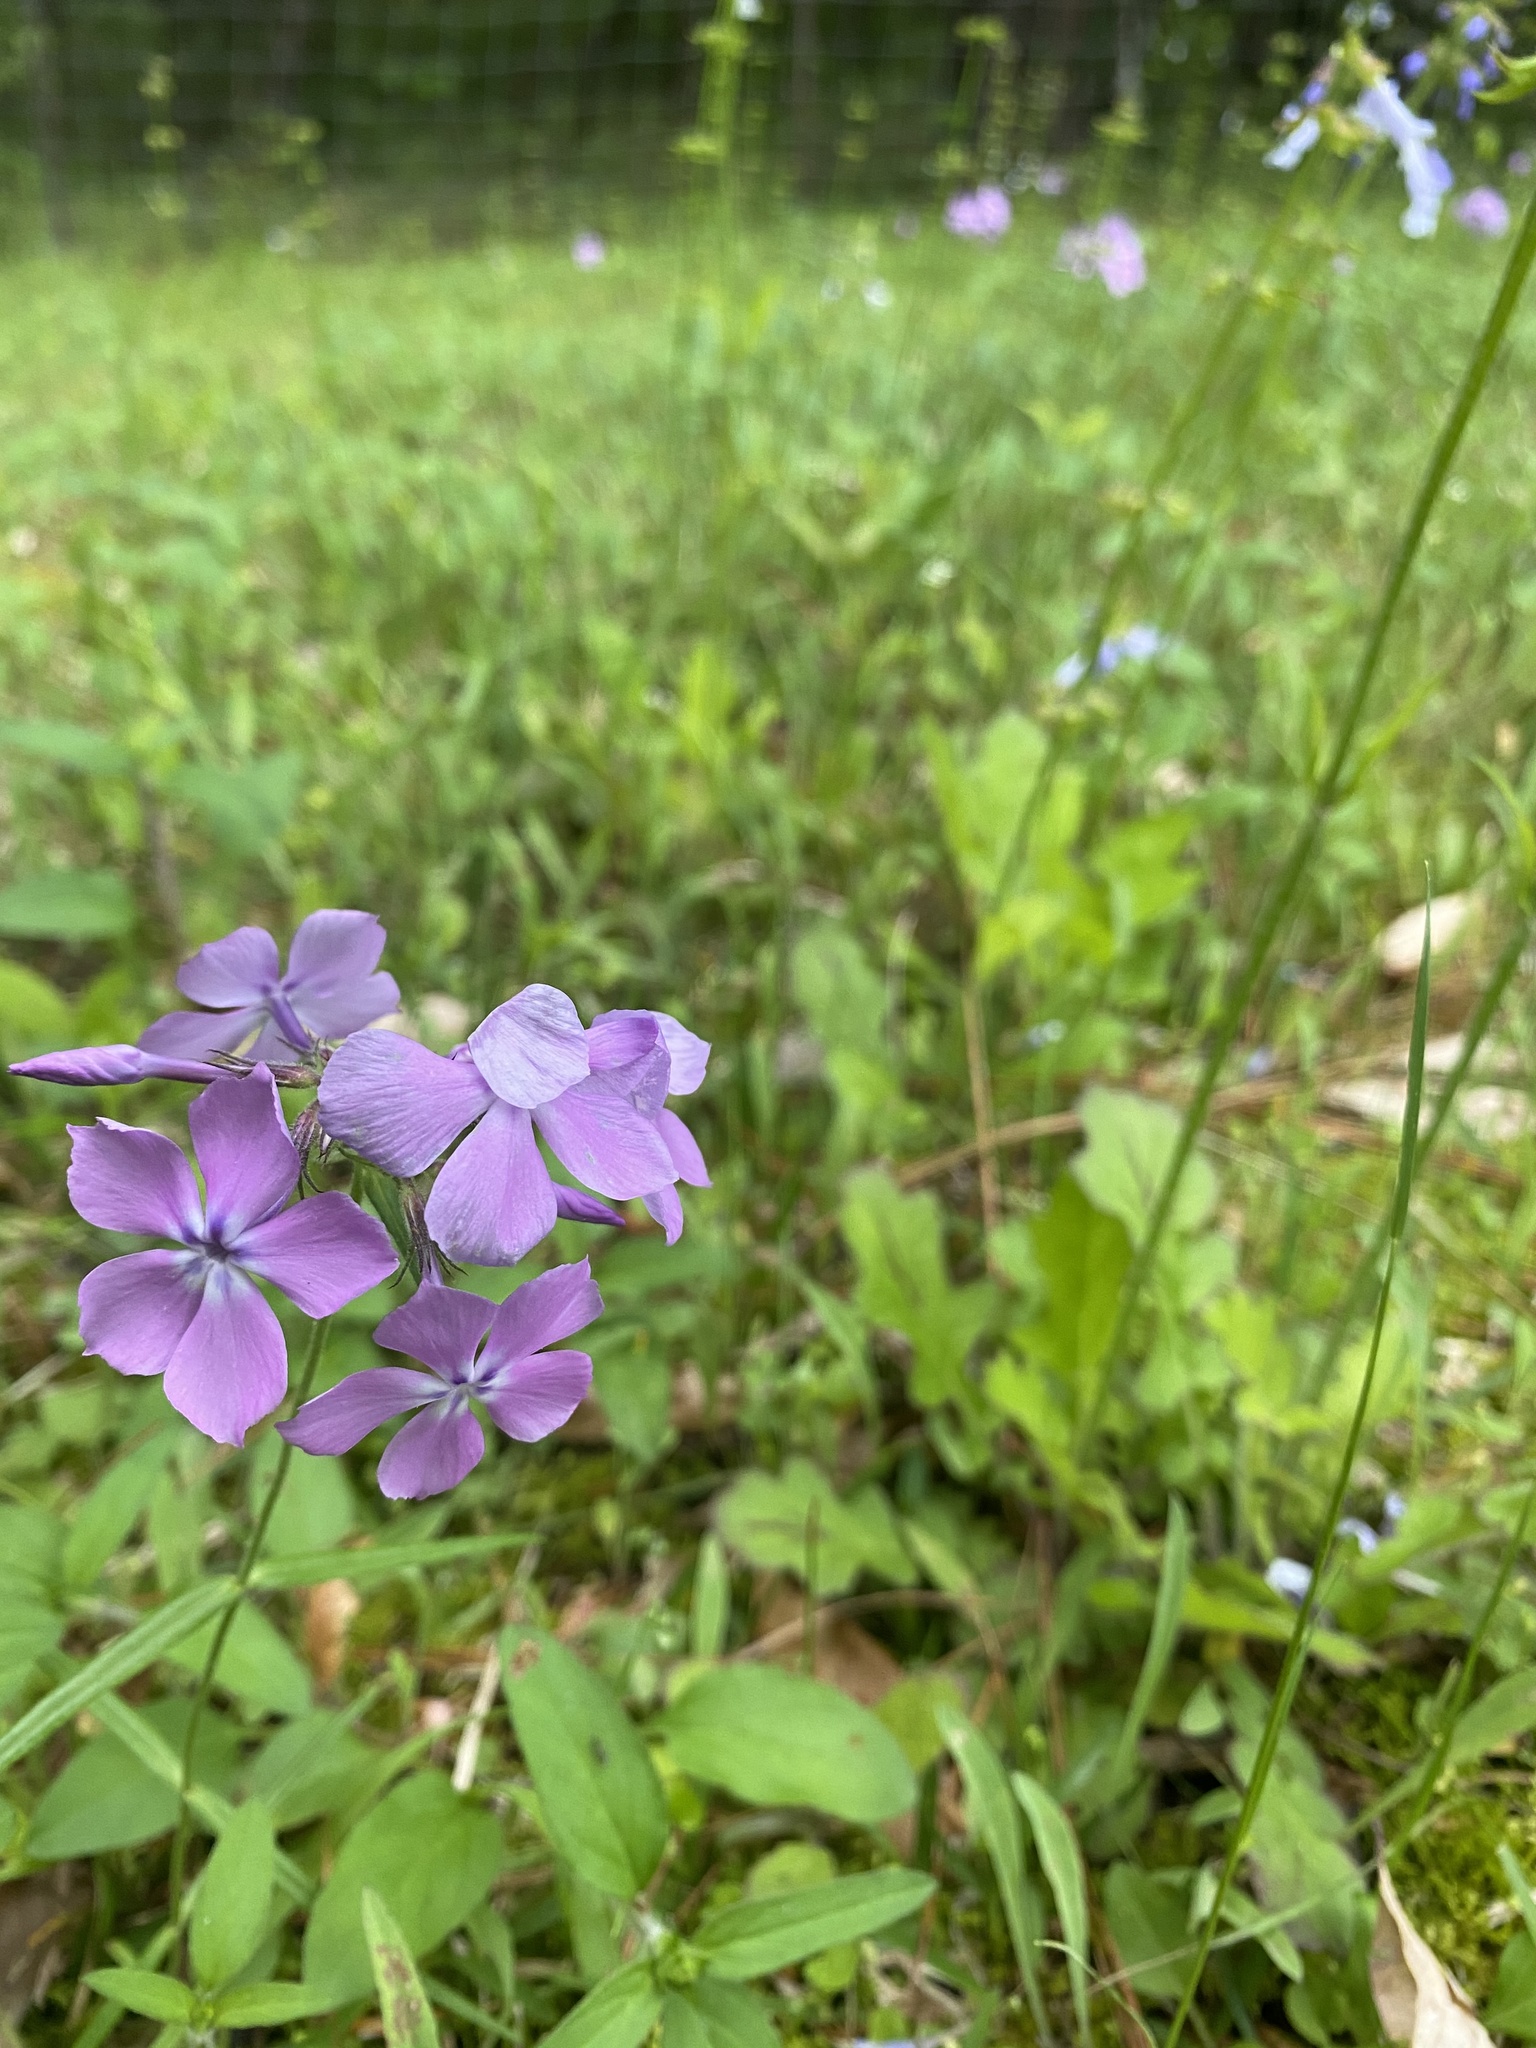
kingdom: Plantae
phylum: Tracheophyta
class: Magnoliopsida
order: Ericales
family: Polemoniaceae
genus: Phlox
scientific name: Phlox pilosa
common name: Prairie phlox
